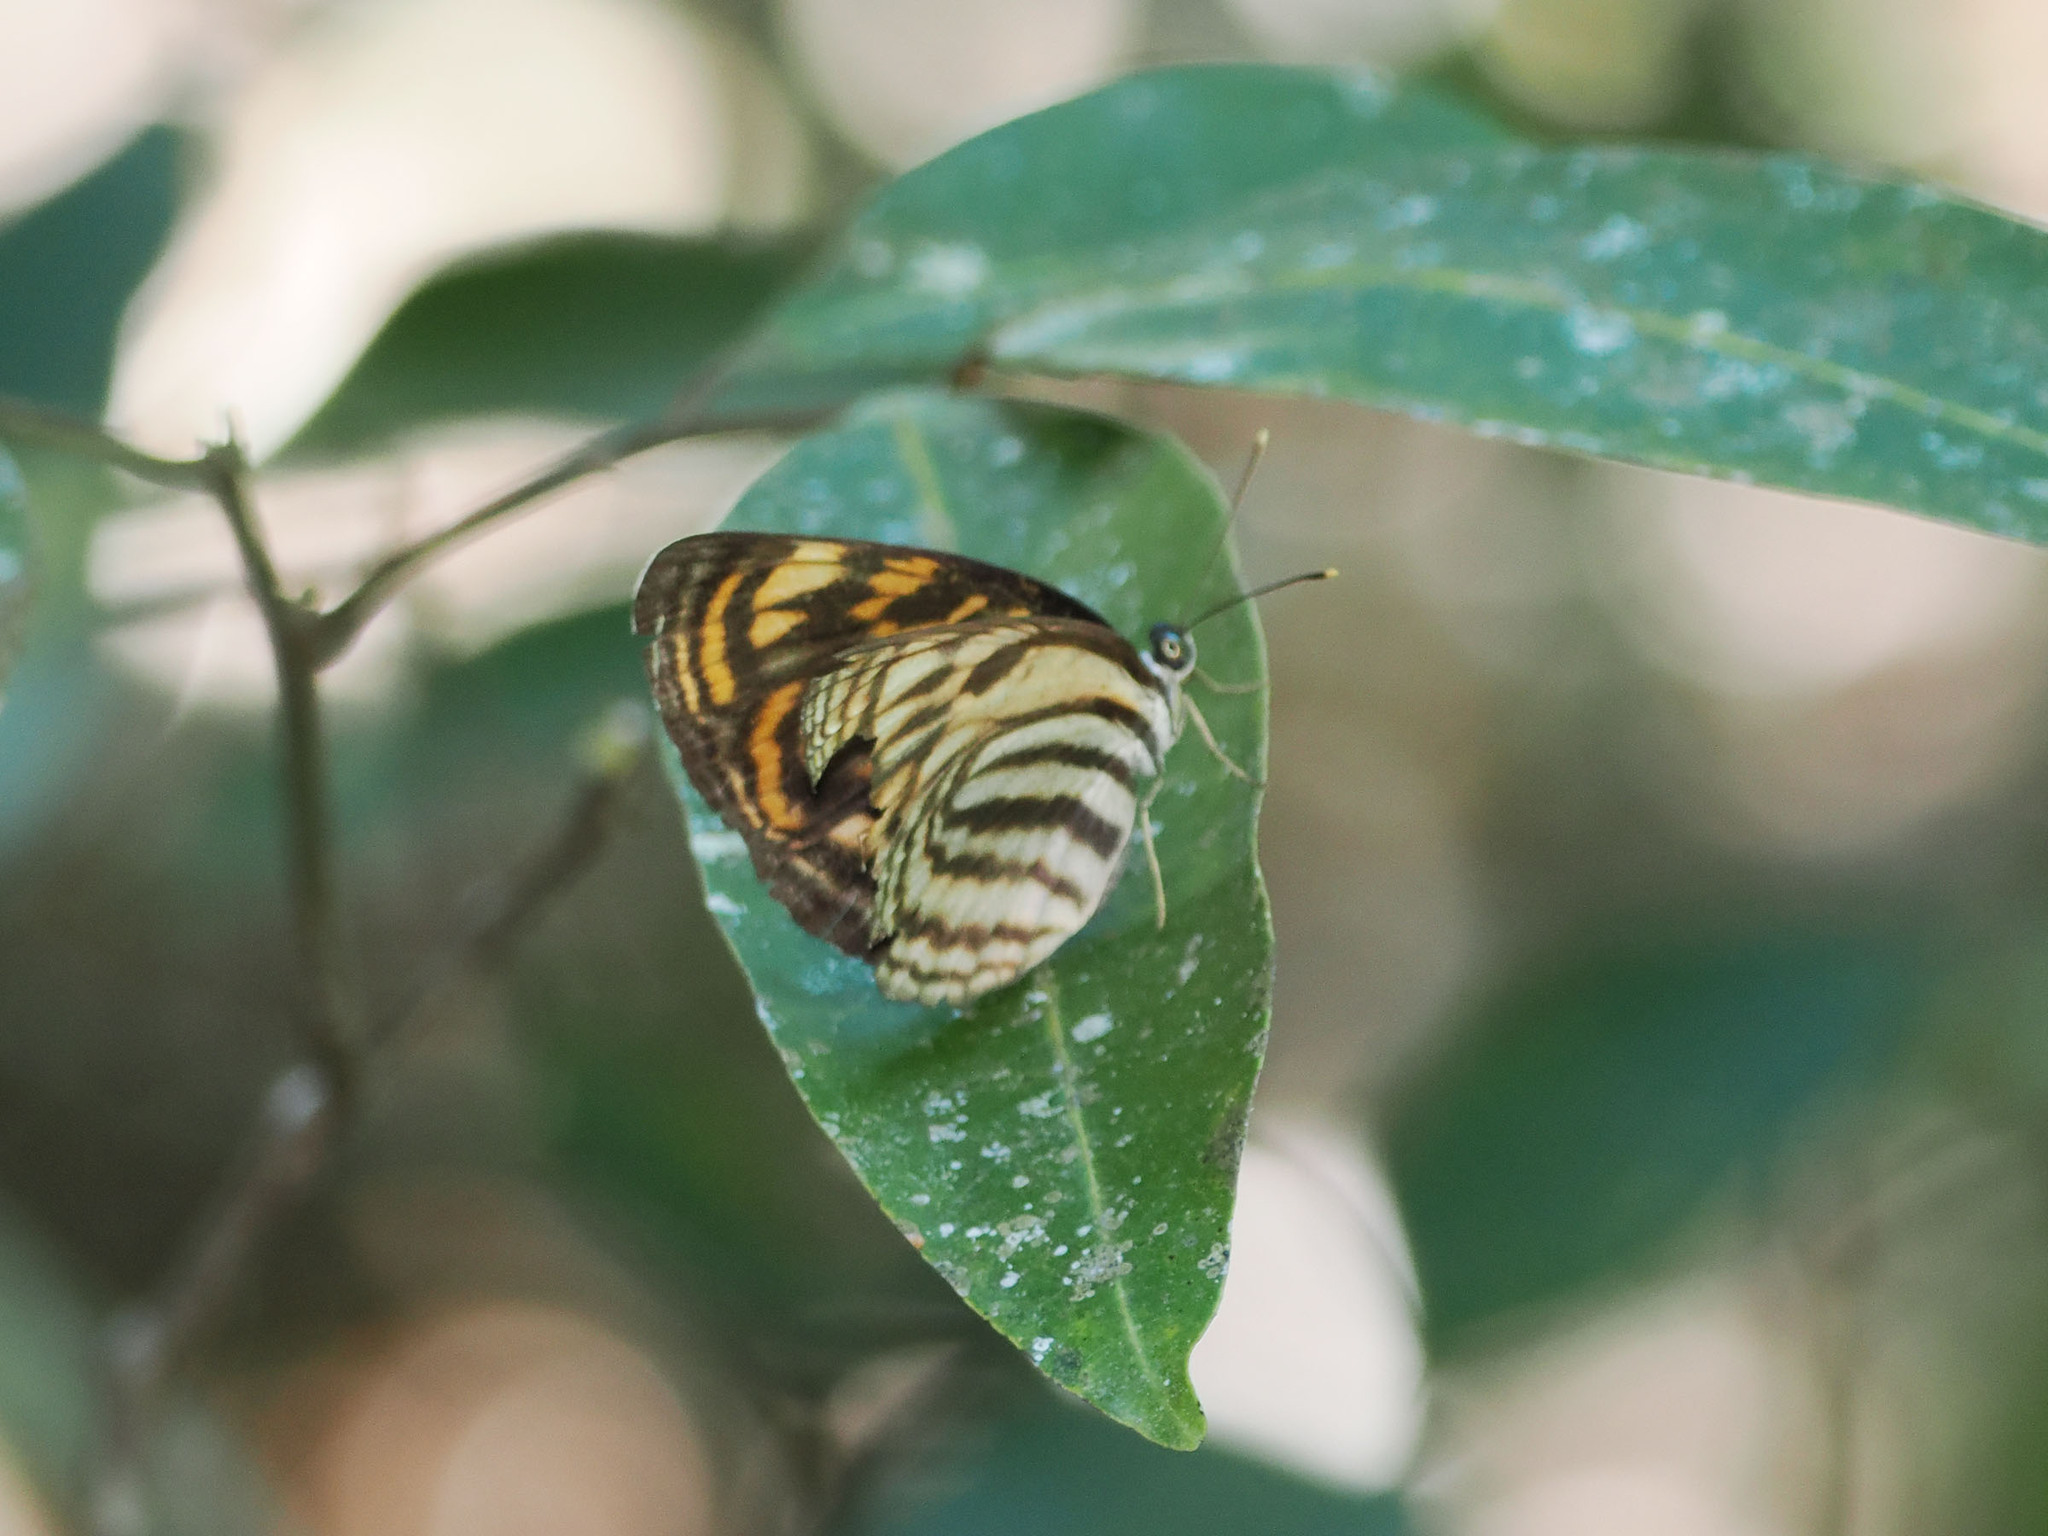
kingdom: Animalia
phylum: Arthropoda
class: Insecta
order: Lepidoptera
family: Nymphalidae
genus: Lasippa
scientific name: Lasippa neriphus
